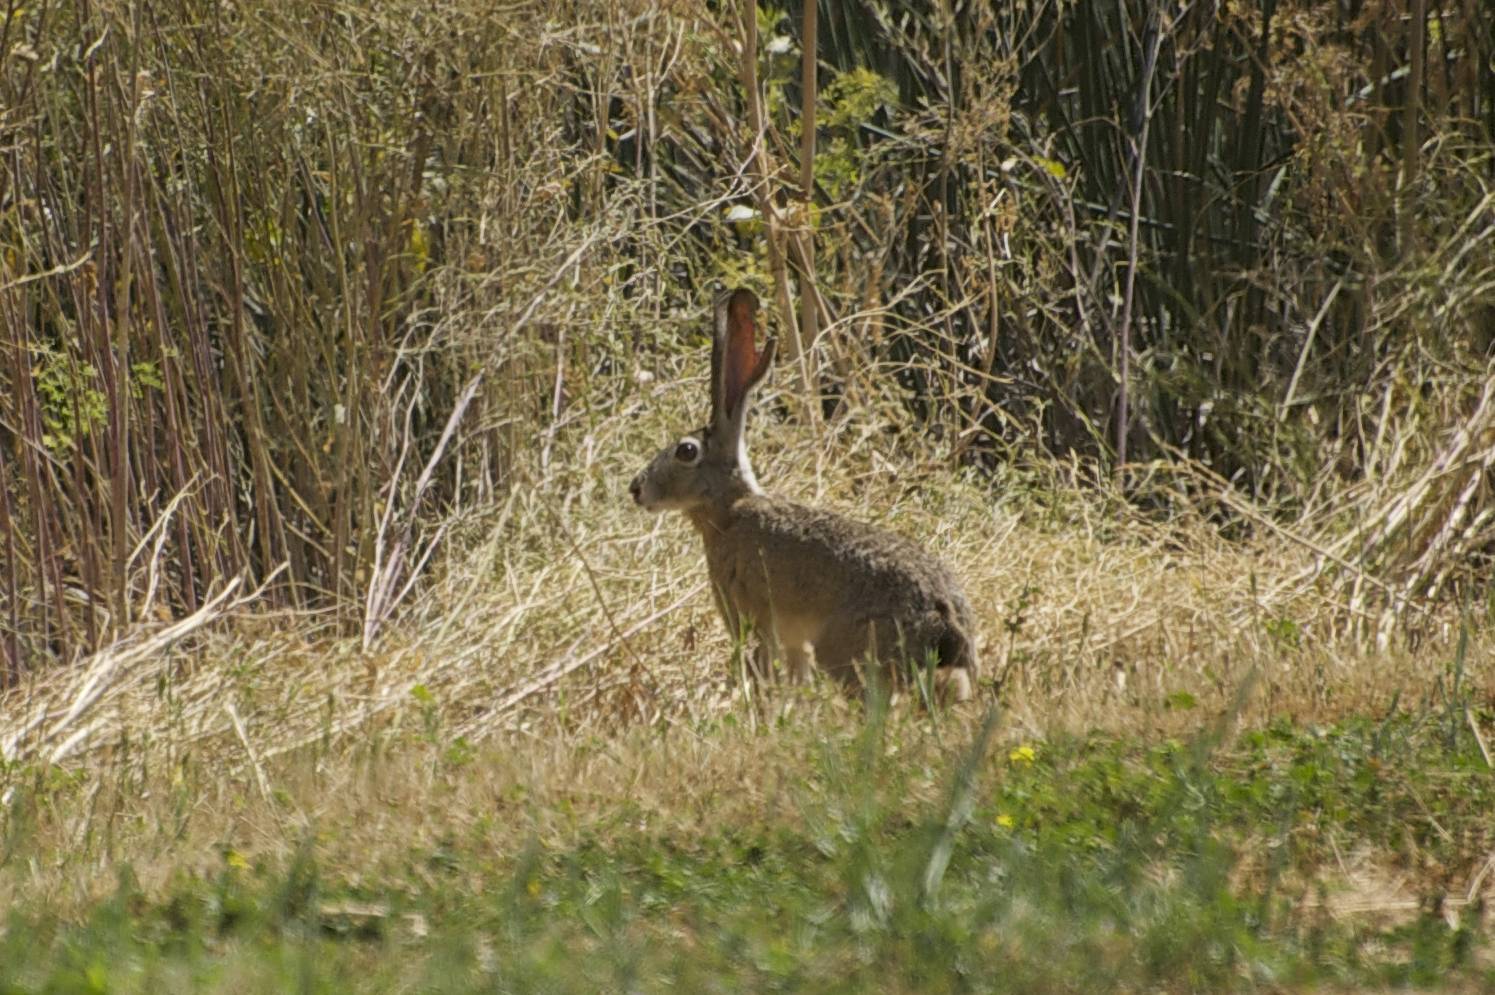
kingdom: Animalia
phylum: Chordata
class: Mammalia
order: Lagomorpha
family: Leporidae
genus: Lepus
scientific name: Lepus californicus
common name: Black-tailed jackrabbit
